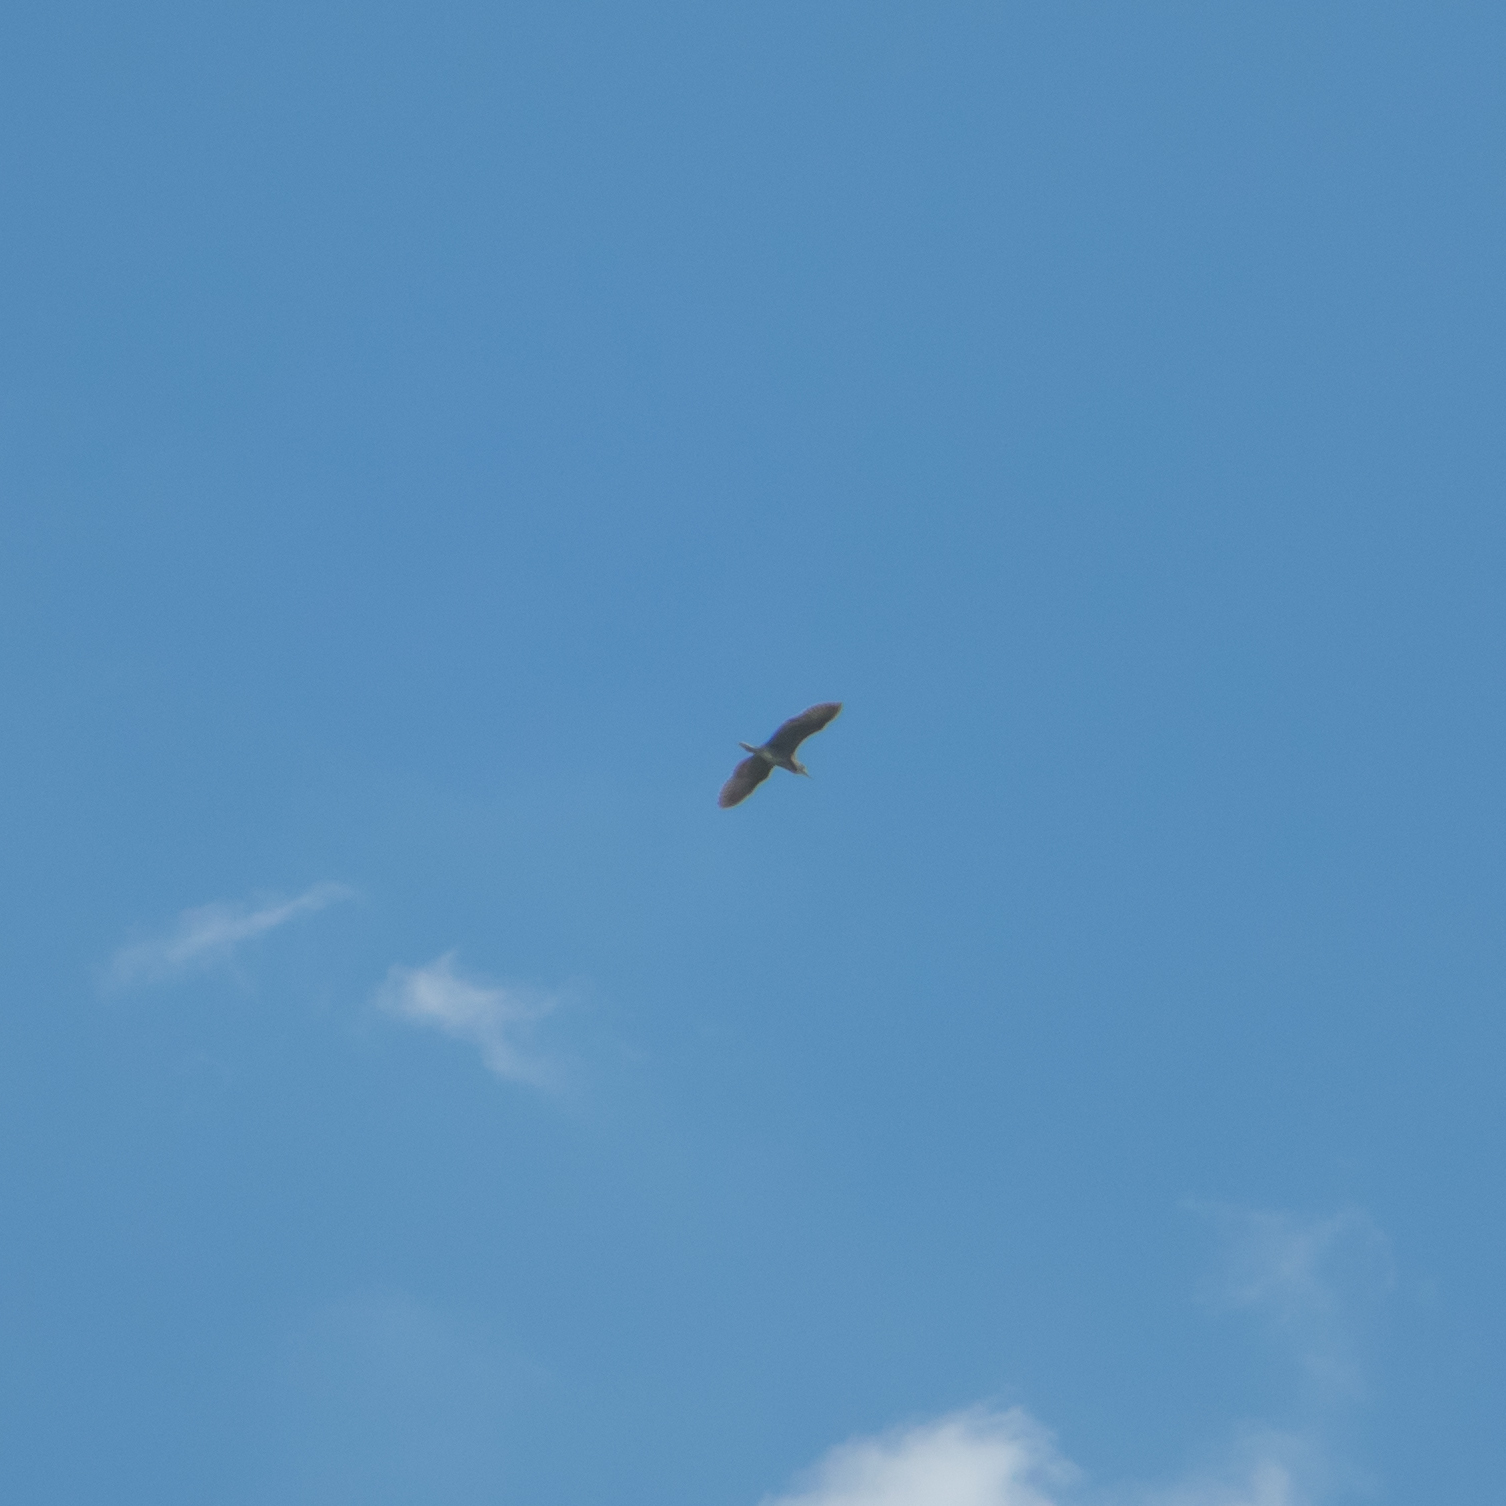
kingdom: Animalia
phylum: Chordata
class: Aves
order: Pelecaniformes
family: Ardeidae
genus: Nycticorax
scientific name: Nycticorax nycticorax
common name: Black-crowned night heron
